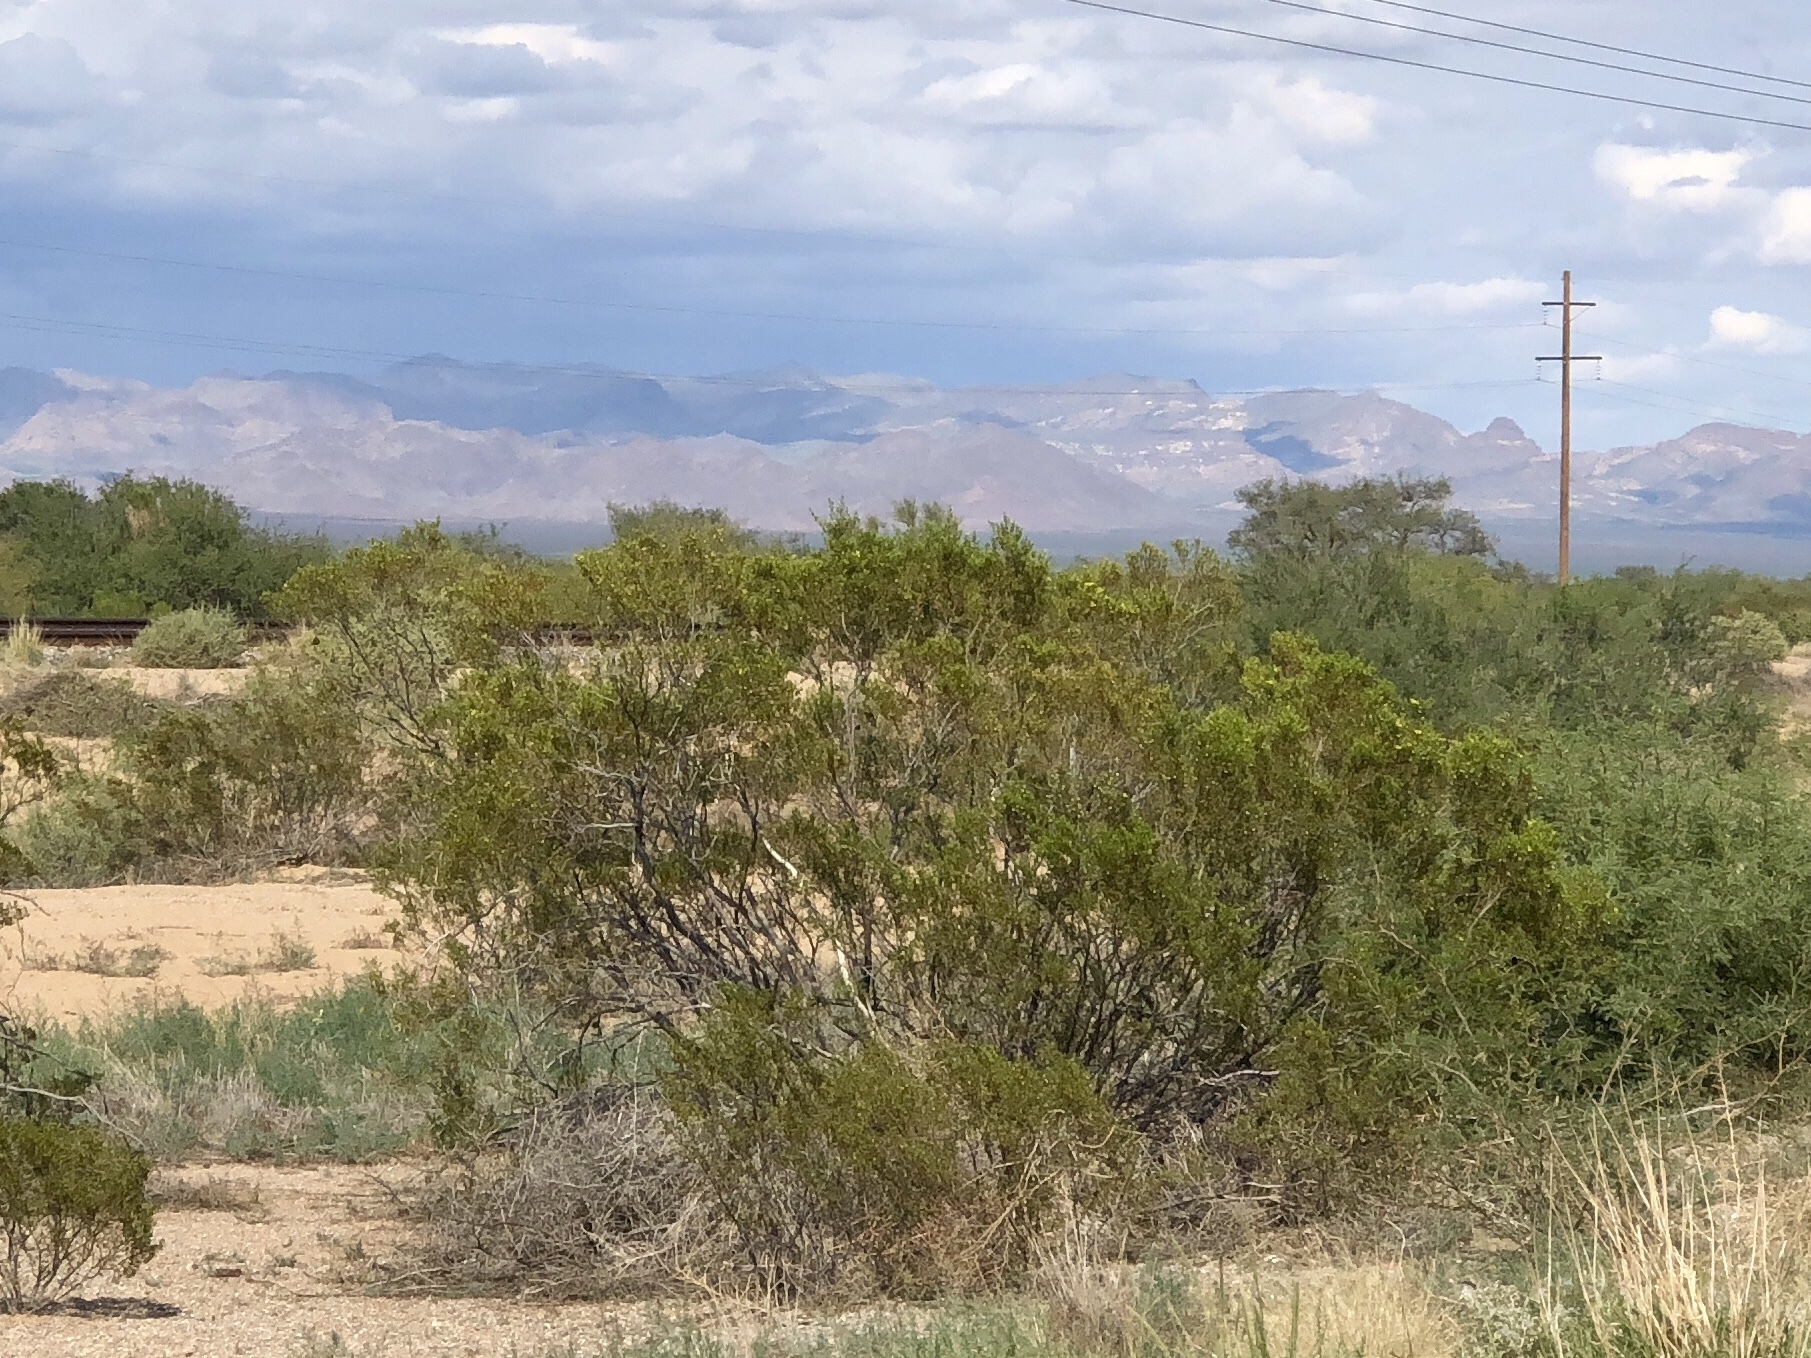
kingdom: Plantae
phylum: Tracheophyta
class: Magnoliopsida
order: Zygophyllales
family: Zygophyllaceae
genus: Larrea
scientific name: Larrea tridentata
